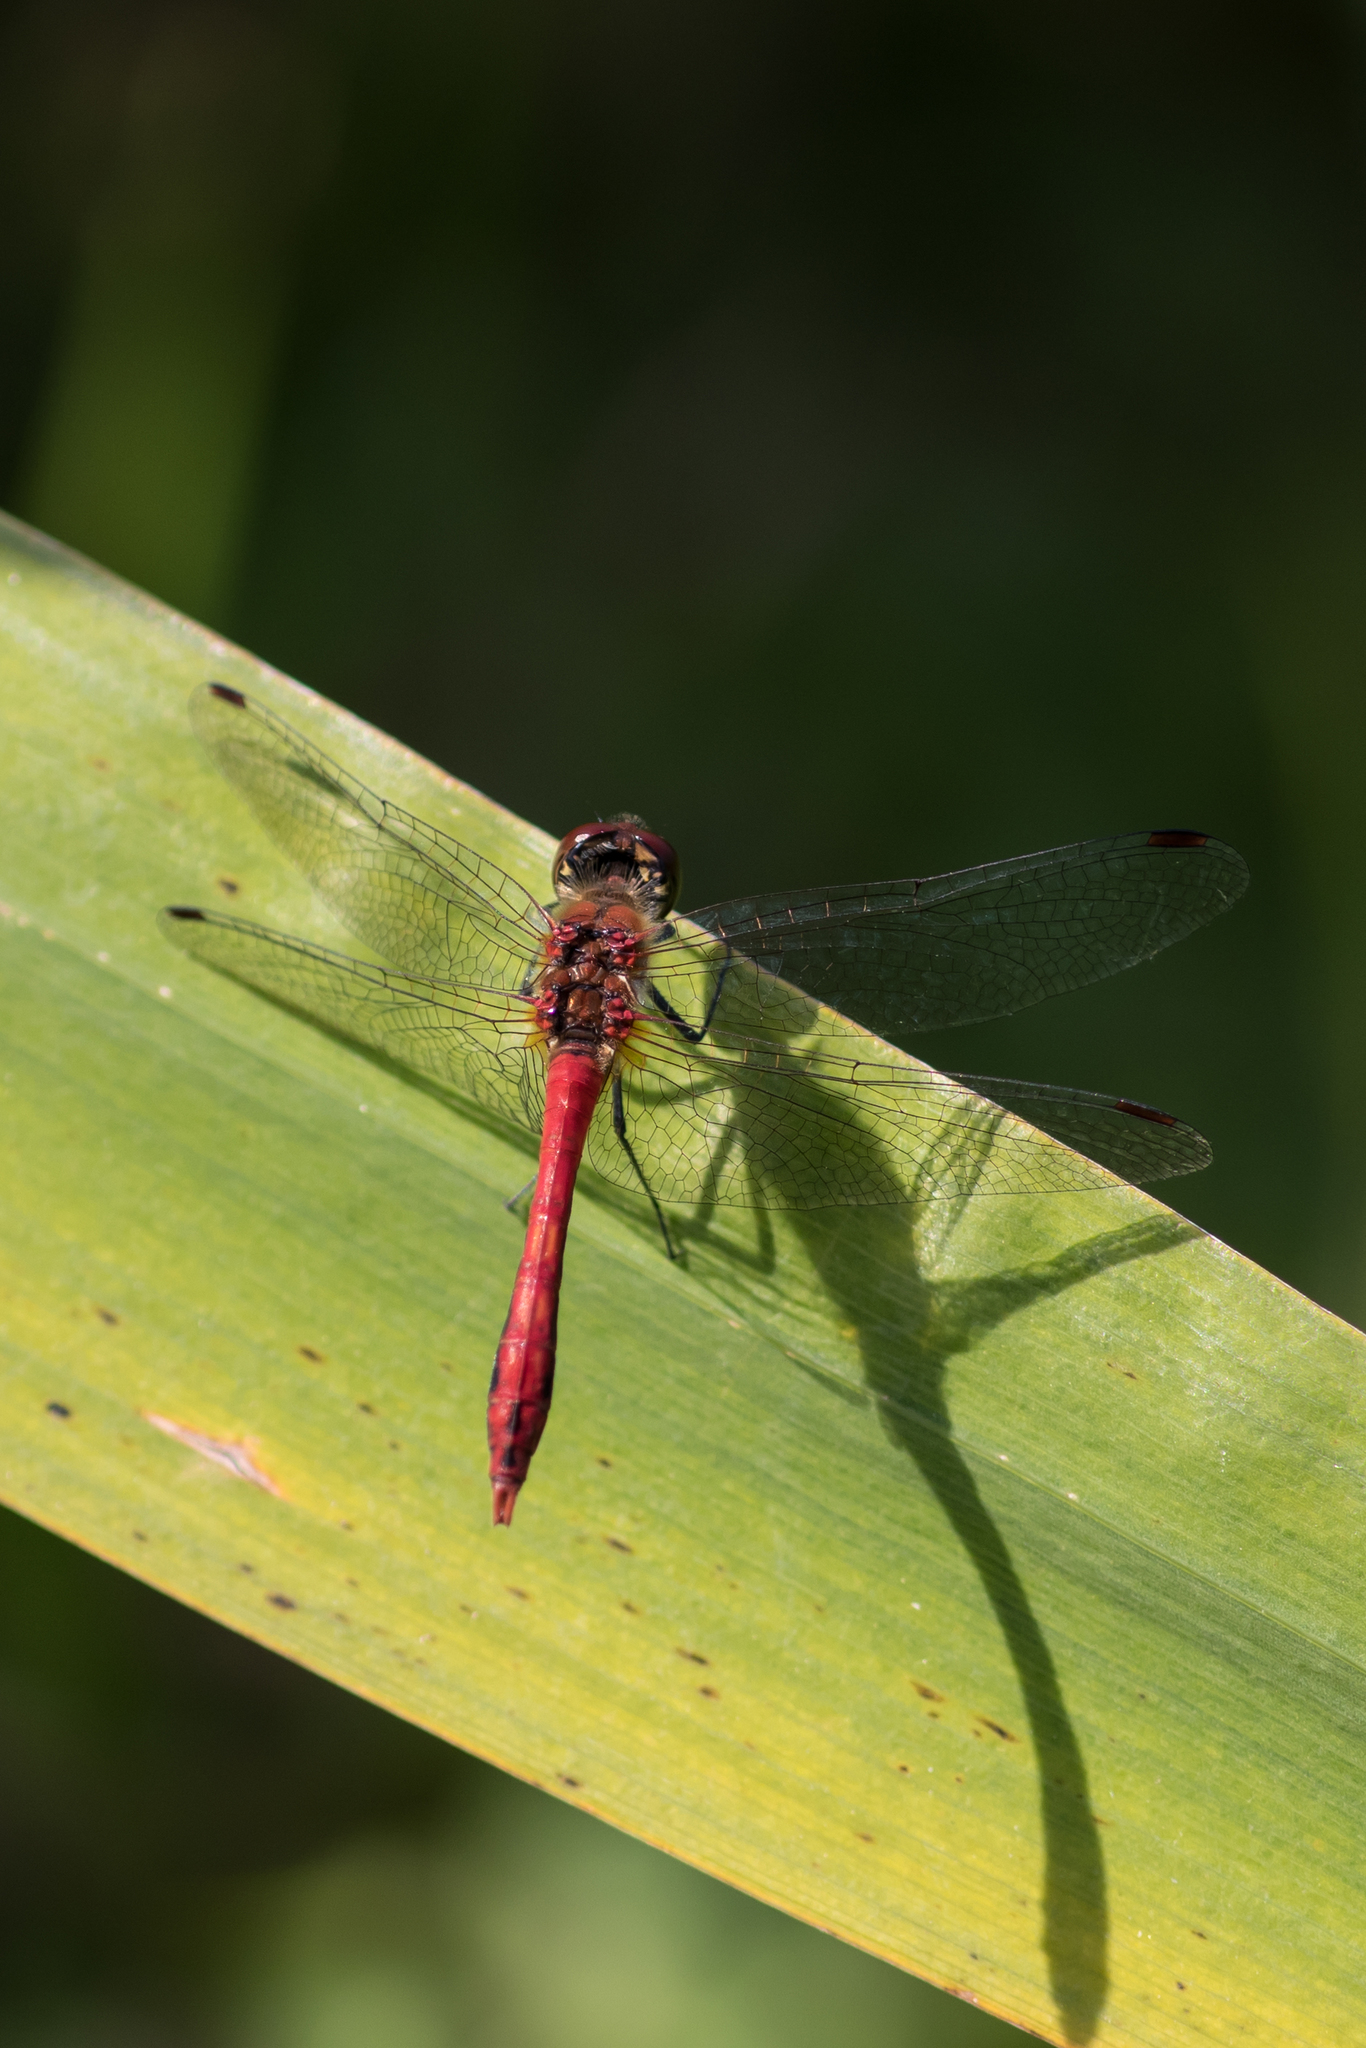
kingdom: Animalia
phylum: Arthropoda
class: Insecta
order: Odonata
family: Libellulidae
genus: Sympetrum
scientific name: Sympetrum sanguineum
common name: Ruddy darter
